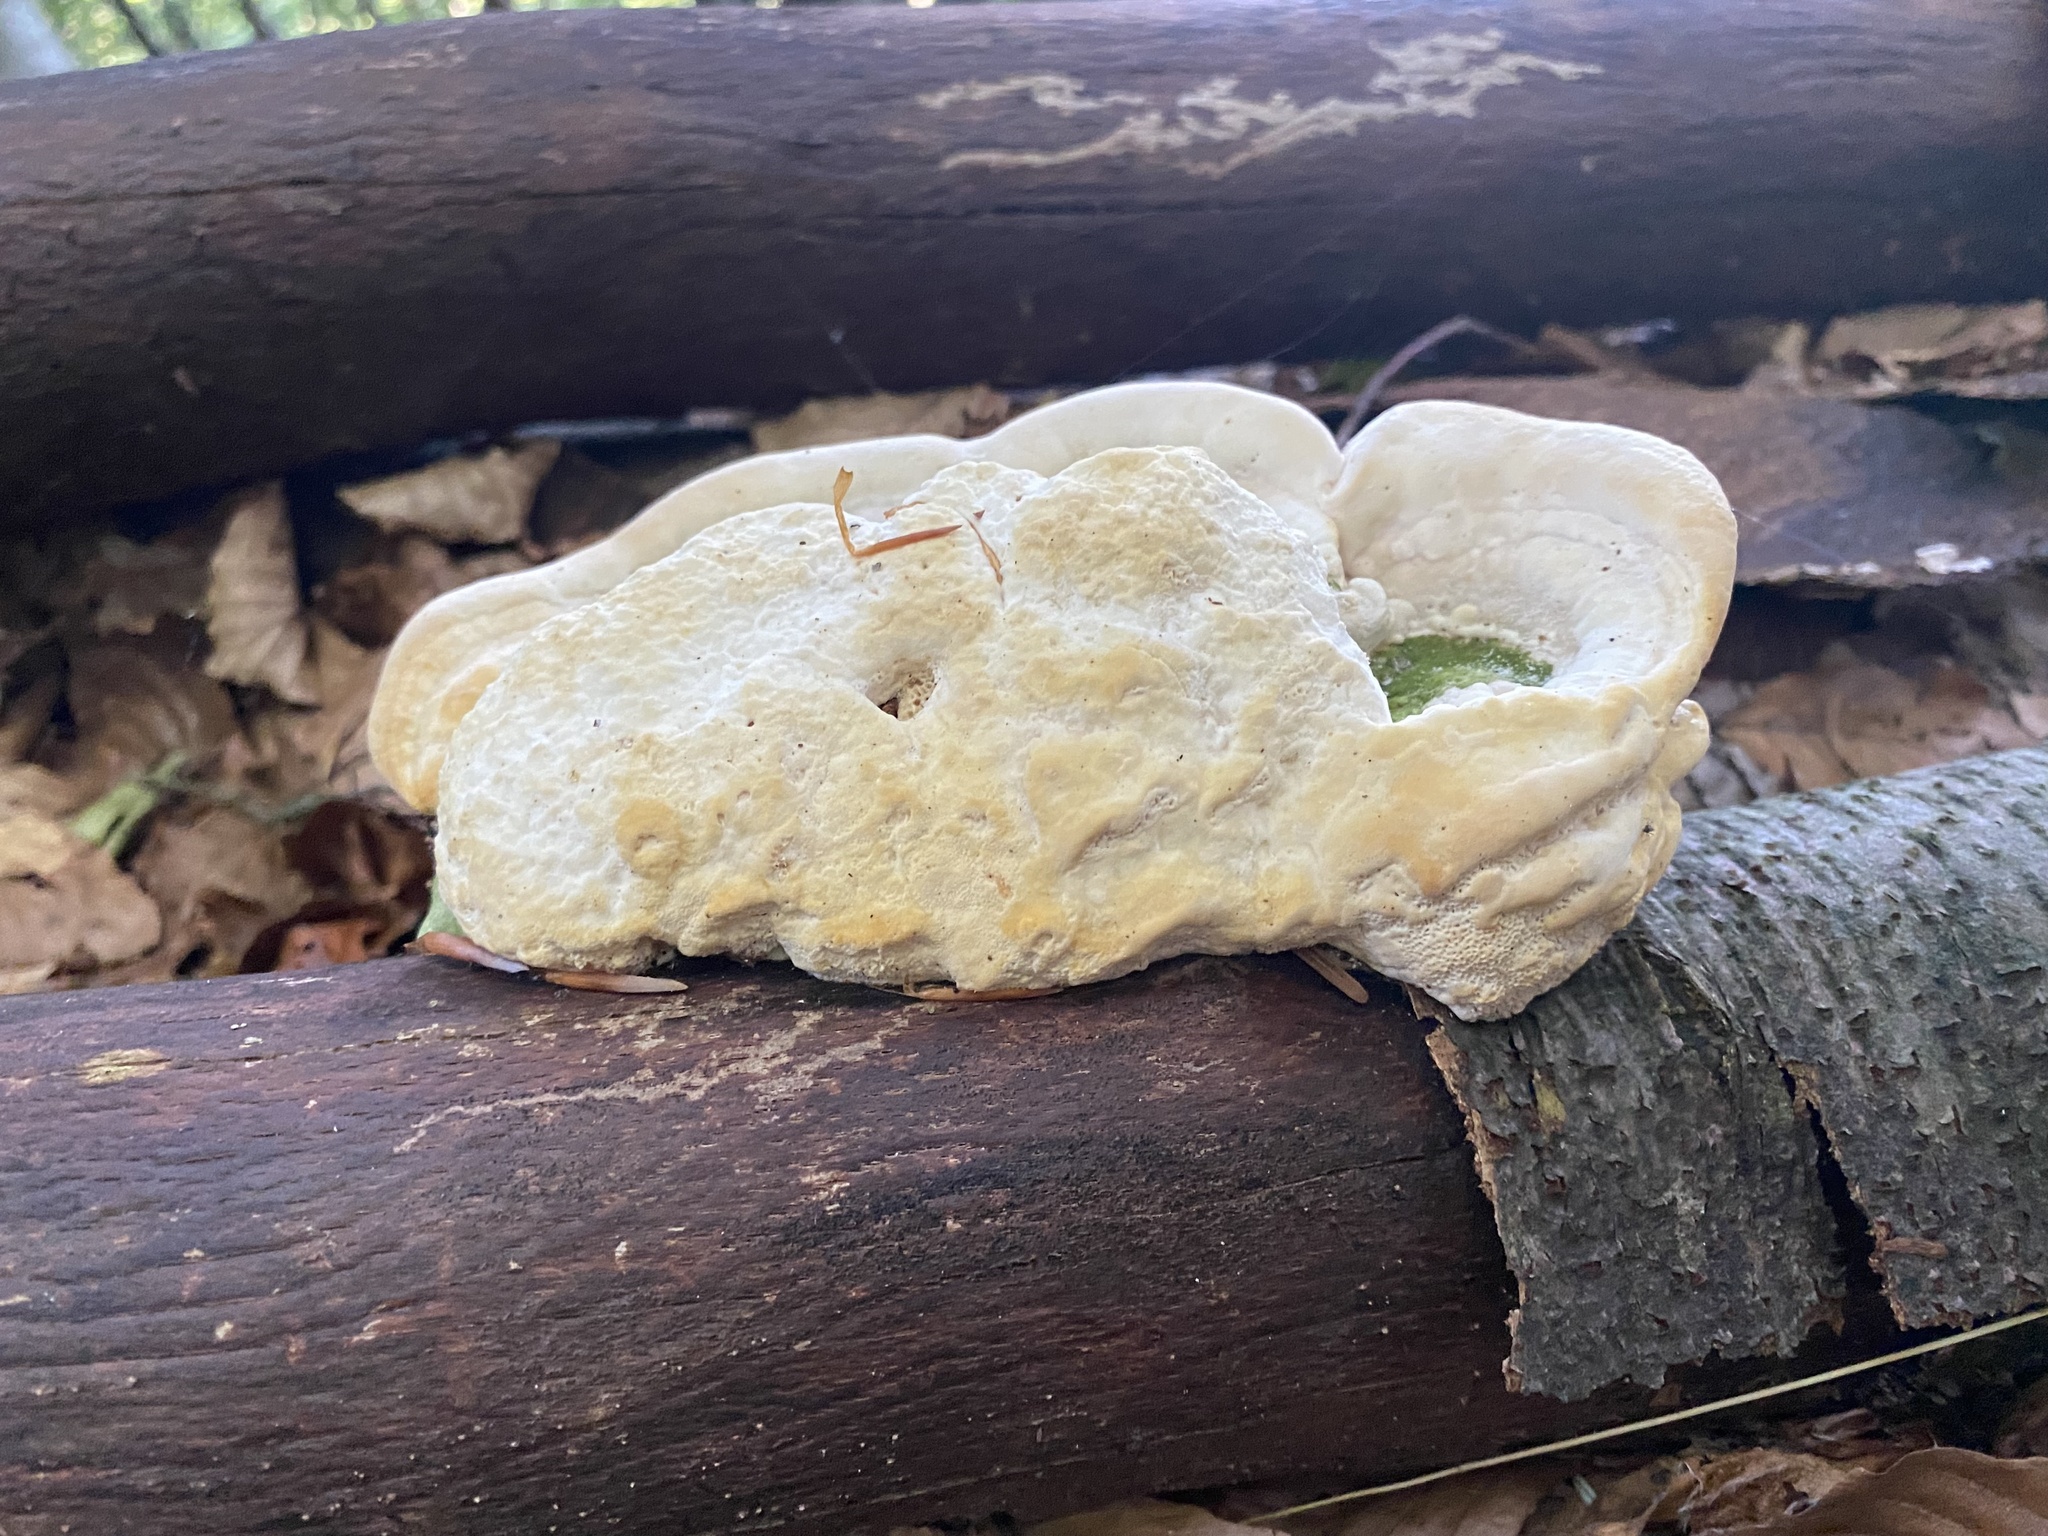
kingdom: Fungi
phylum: Basidiomycota
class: Agaricomycetes
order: Polyporales
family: Polyporaceae
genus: Trametes
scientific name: Trametes gibbosa
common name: Lumpy bracket
